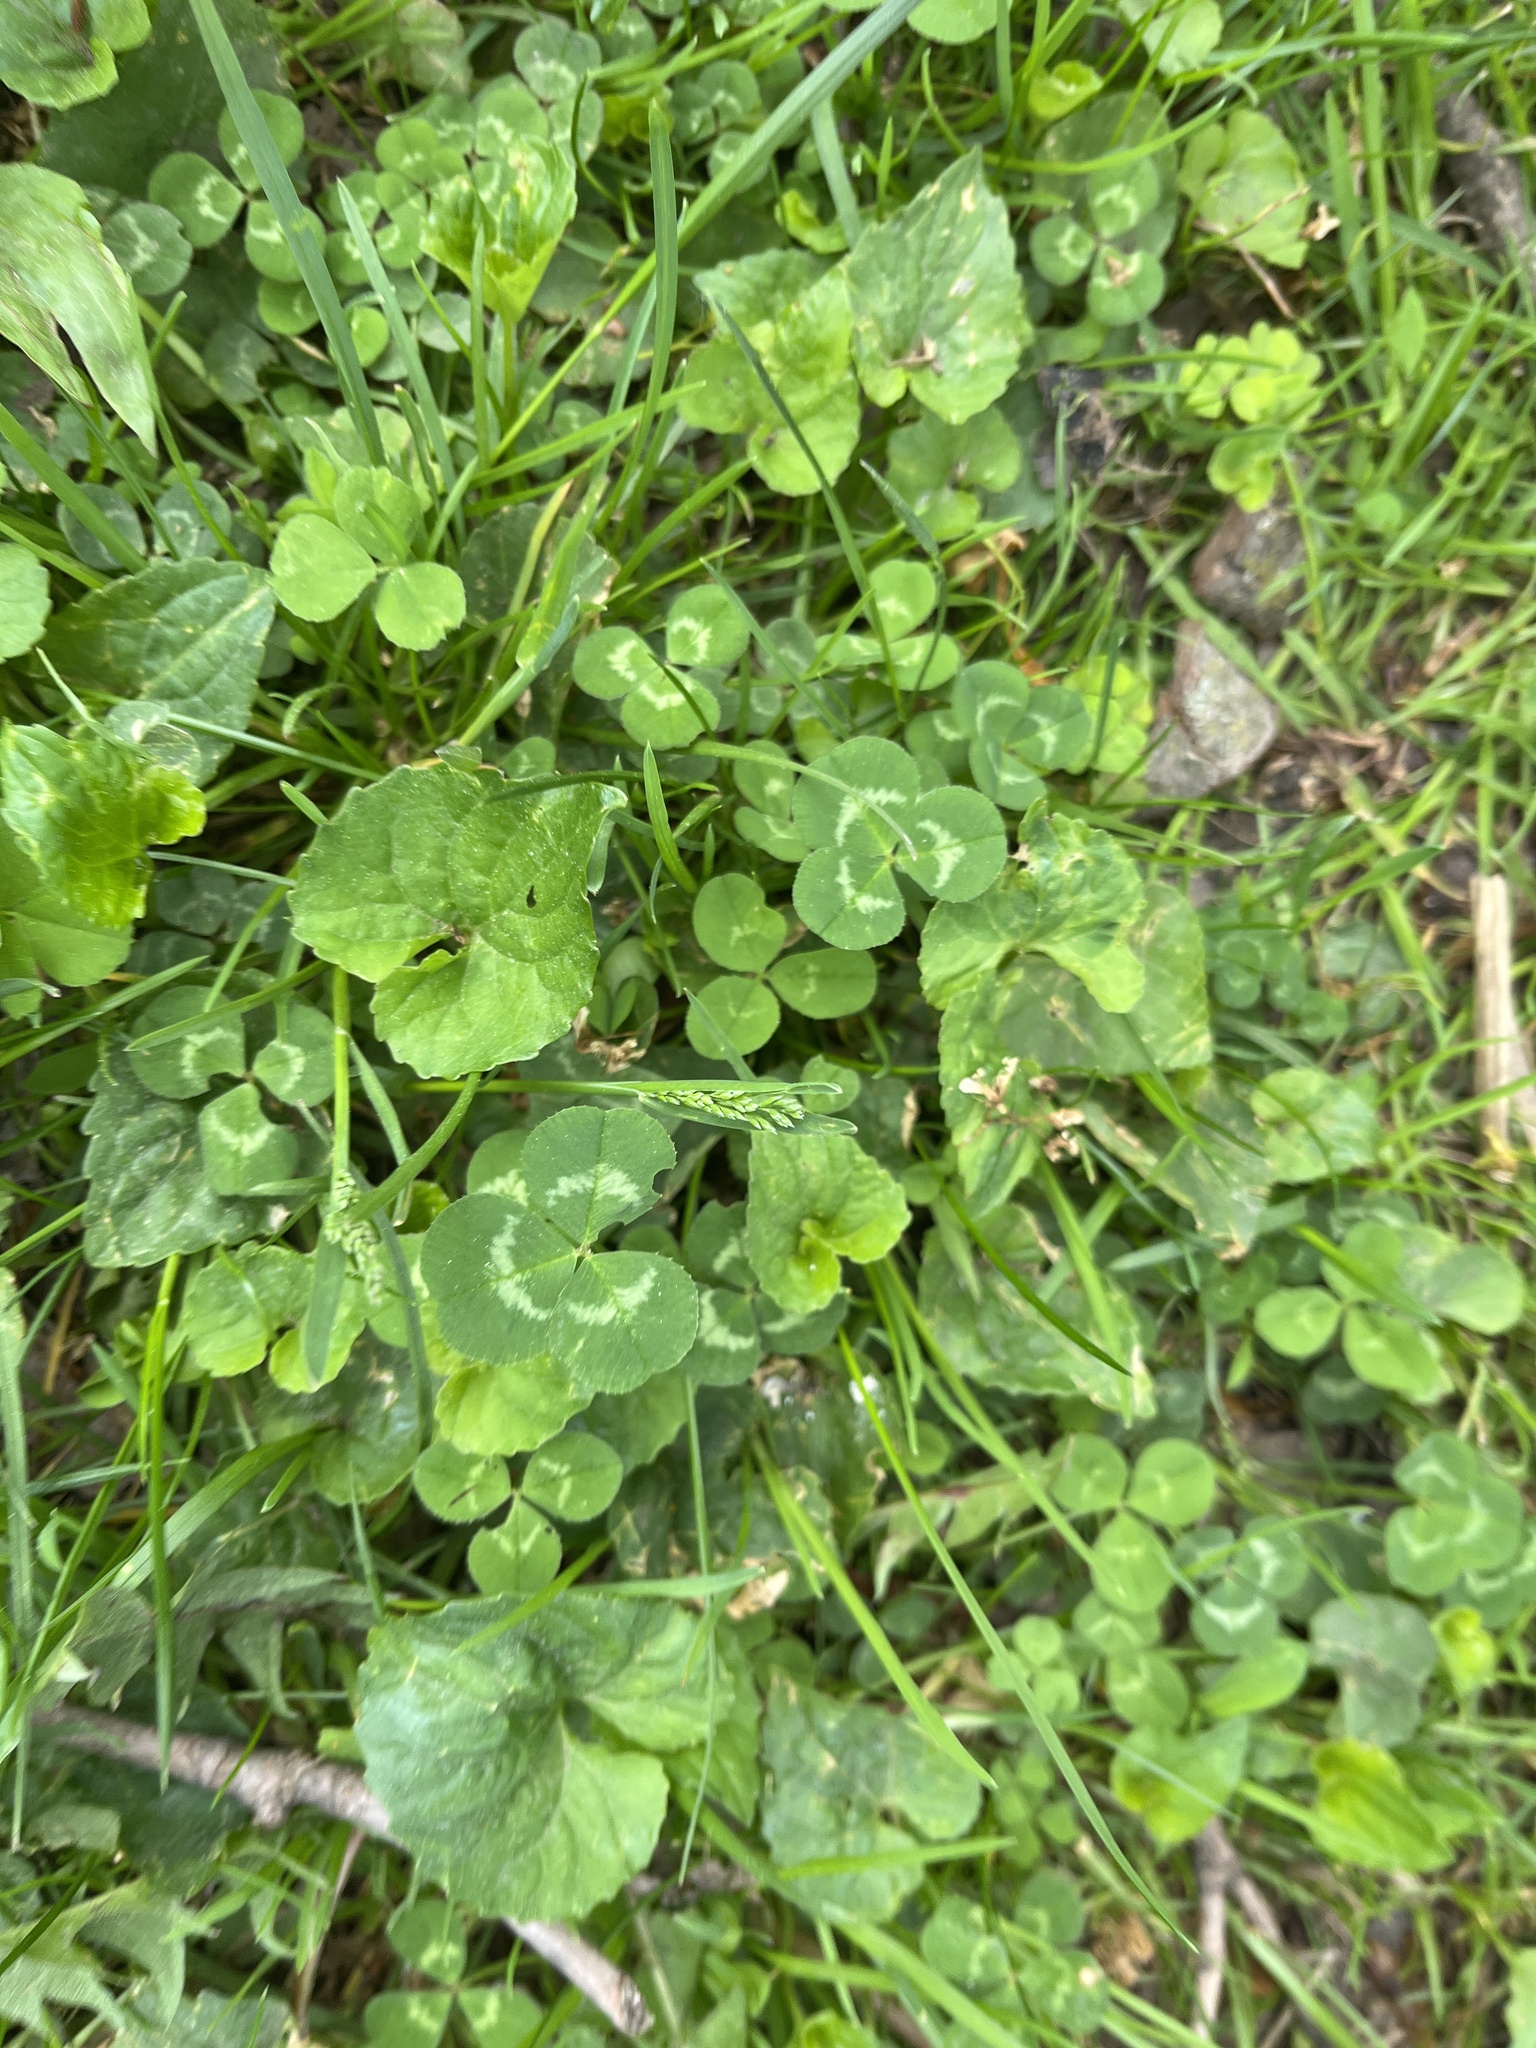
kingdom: Plantae
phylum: Tracheophyta
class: Magnoliopsida
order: Fabales
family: Fabaceae
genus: Trifolium
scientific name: Trifolium repens
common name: White clover
